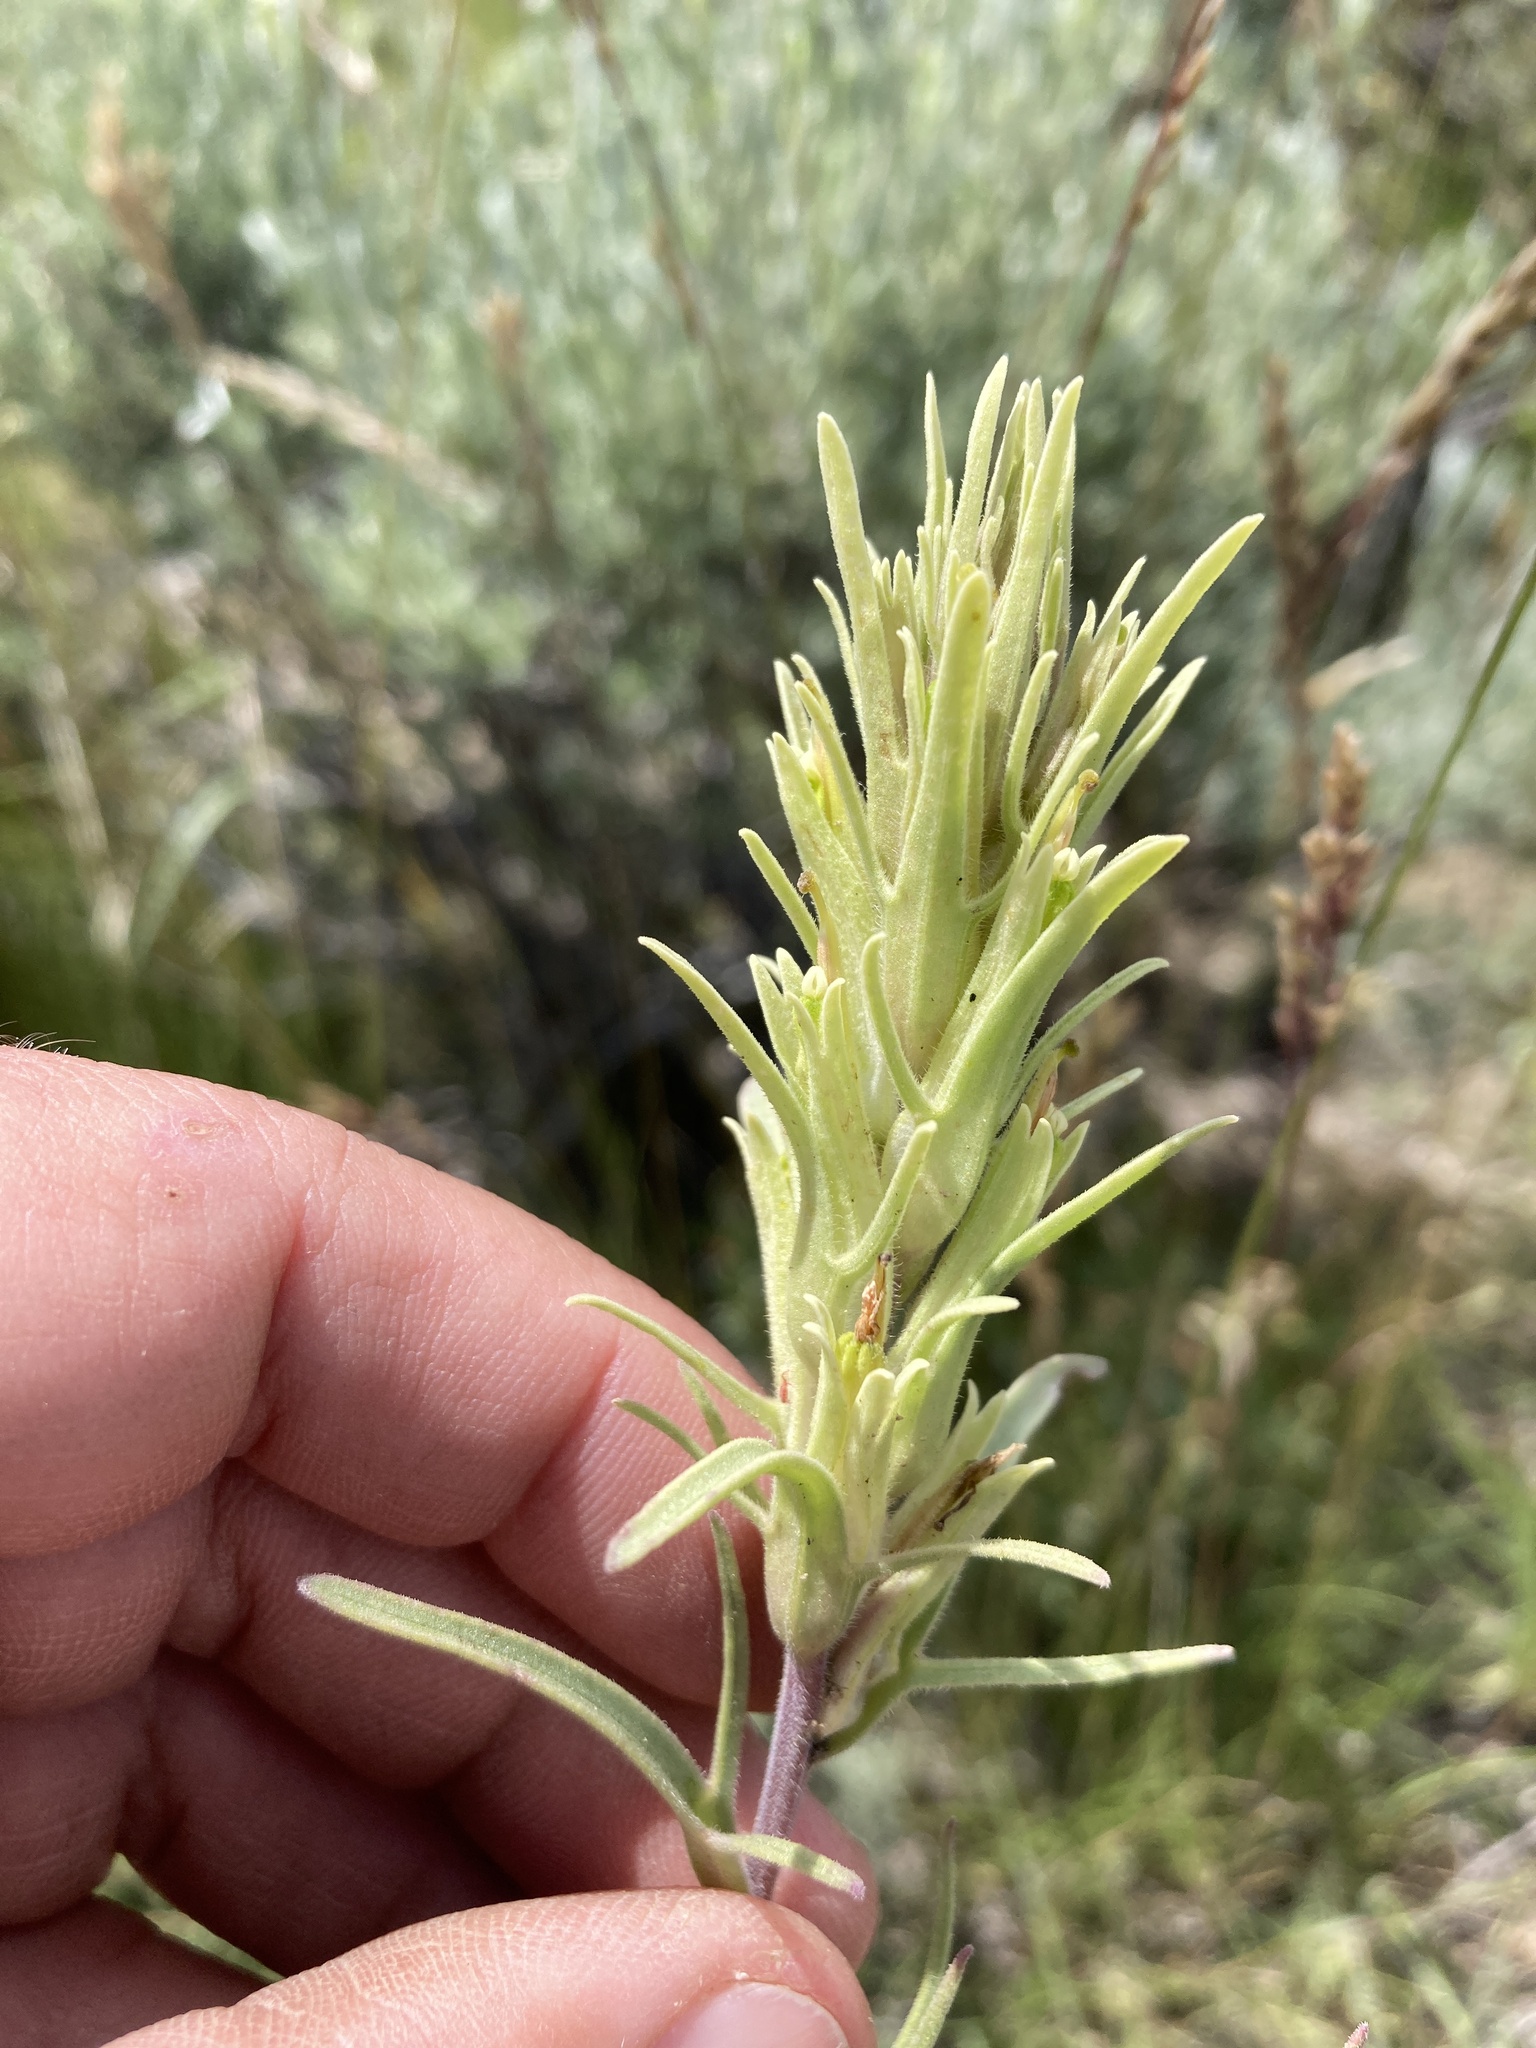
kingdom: Plantae
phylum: Tracheophyta
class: Magnoliopsida
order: Lamiales
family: Orobanchaceae
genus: Castilleja
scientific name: Castilleja pallescens
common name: Pale paintbrush
